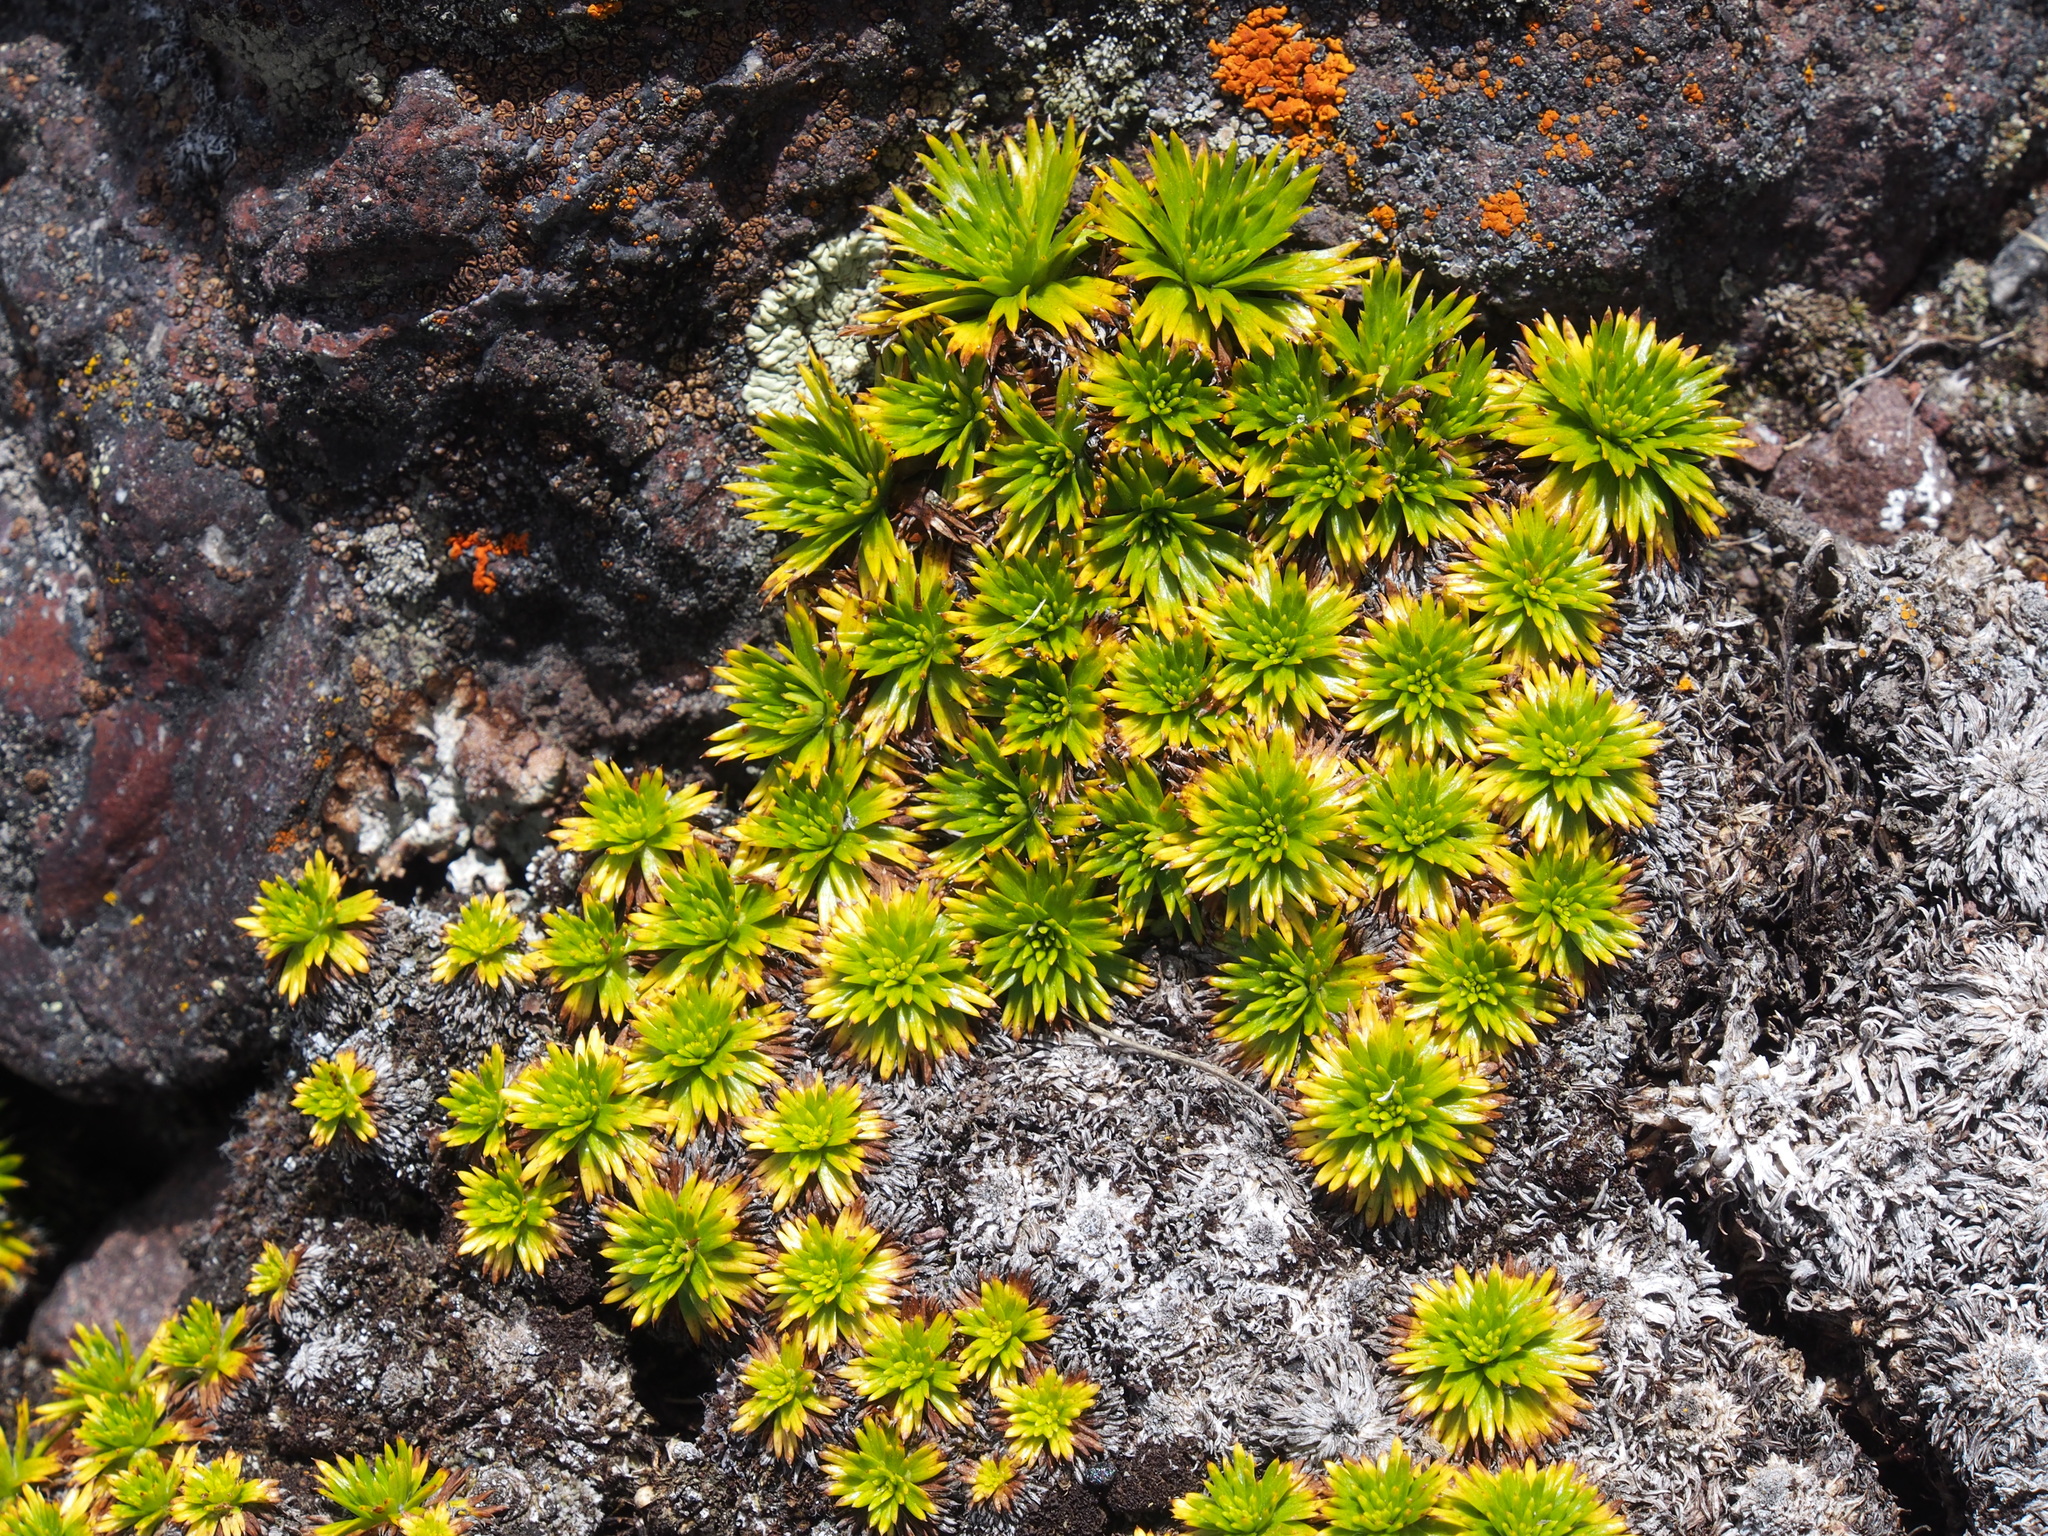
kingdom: Plantae
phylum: Tracheophyta
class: Magnoliopsida
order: Apiales
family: Apiaceae
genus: Azorella
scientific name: Azorella pedunculata
